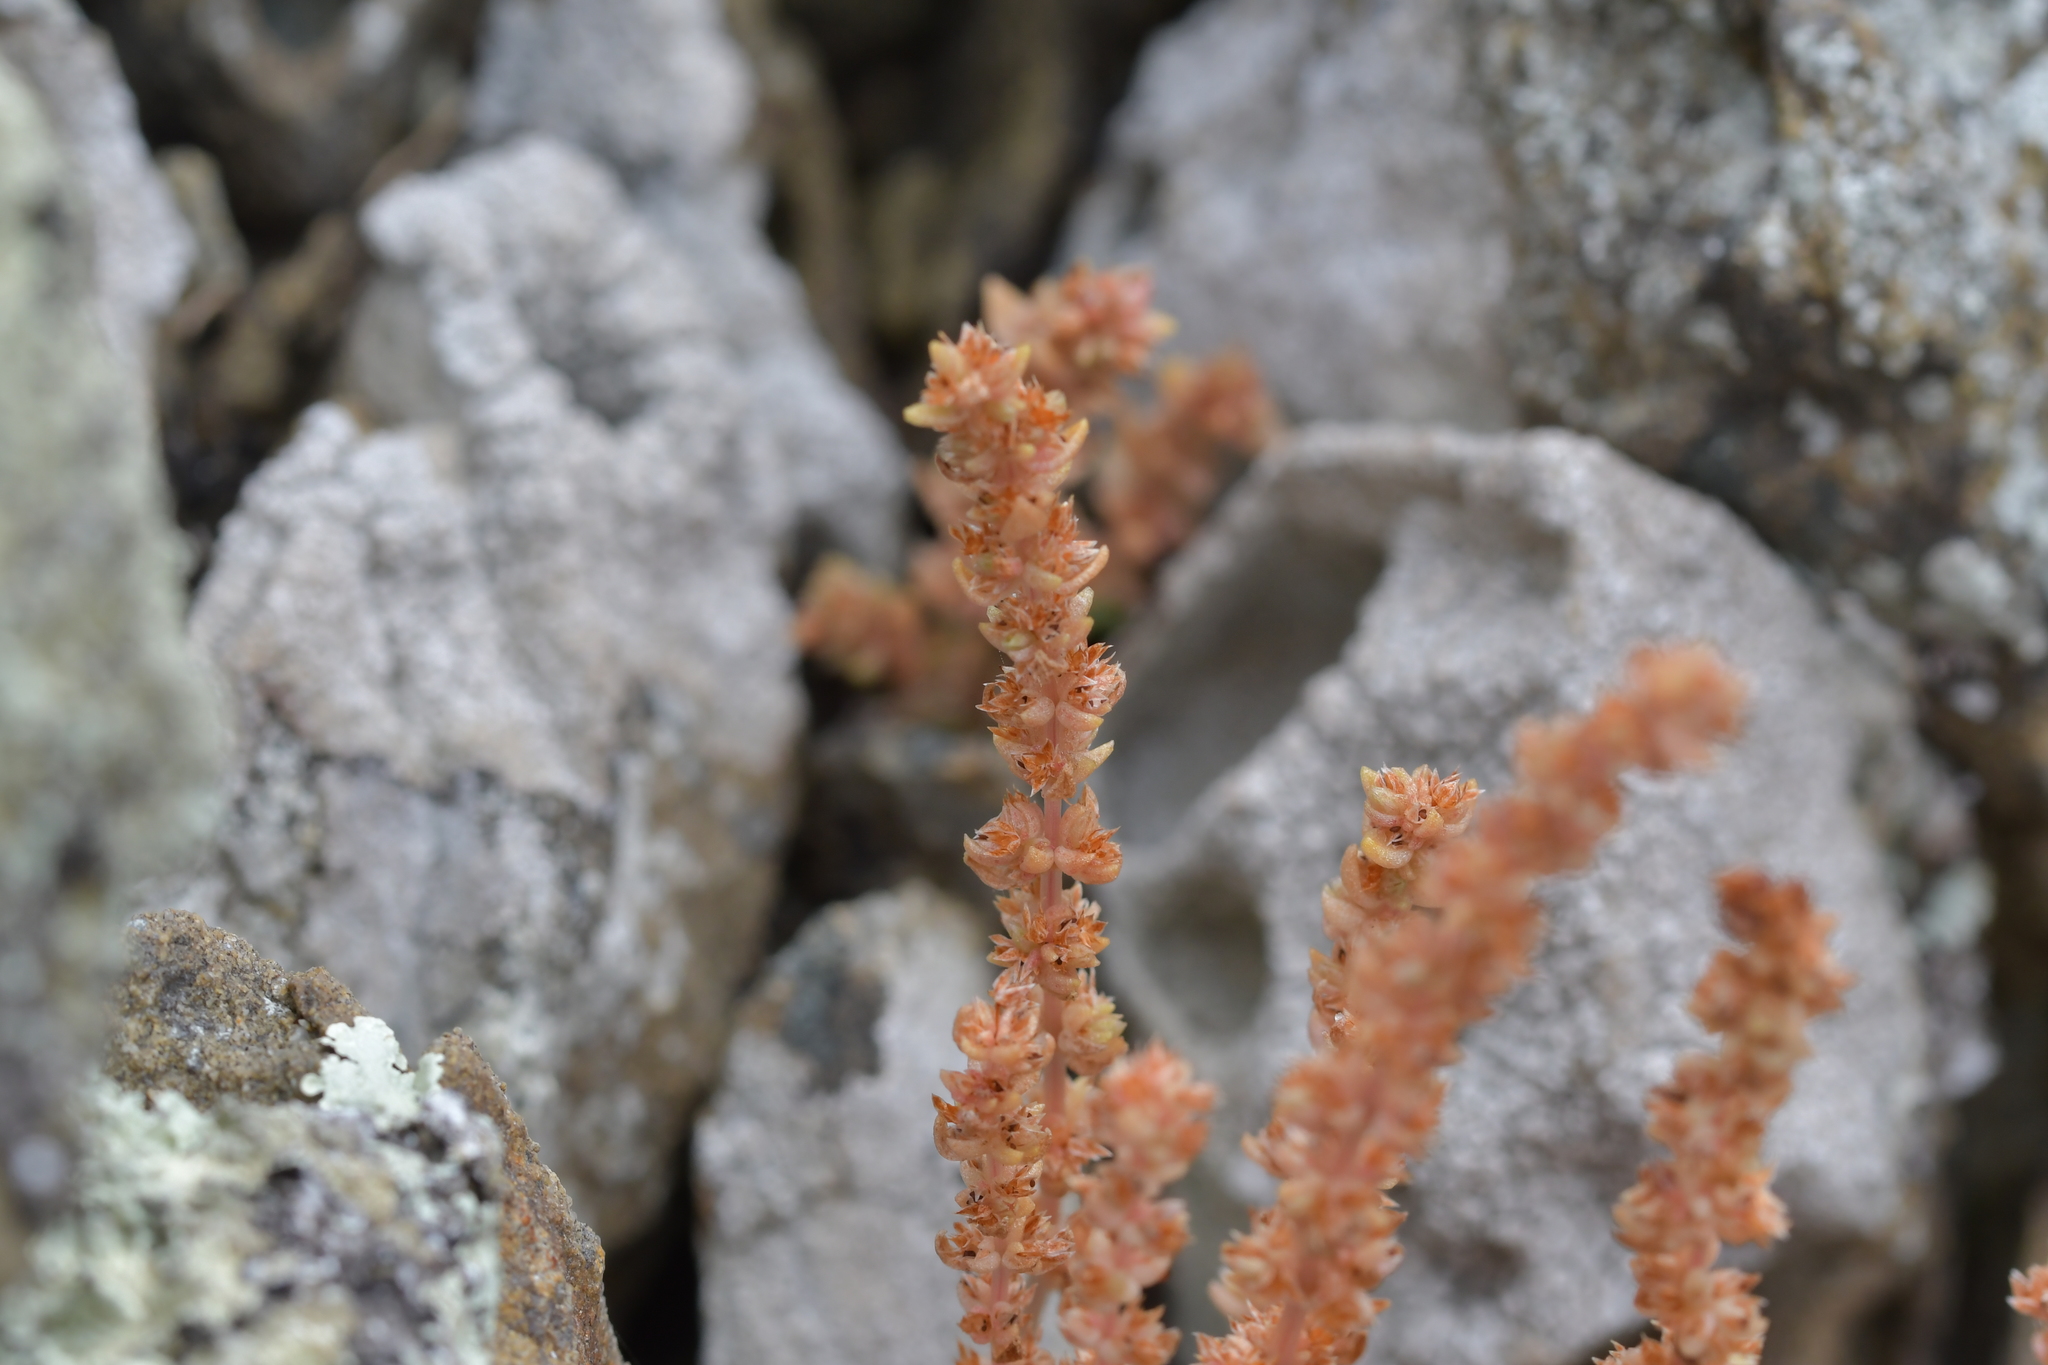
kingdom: Plantae
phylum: Tracheophyta
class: Magnoliopsida
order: Saxifragales
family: Crassulaceae
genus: Crassula
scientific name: Crassula colligata
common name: Pygmyweed
